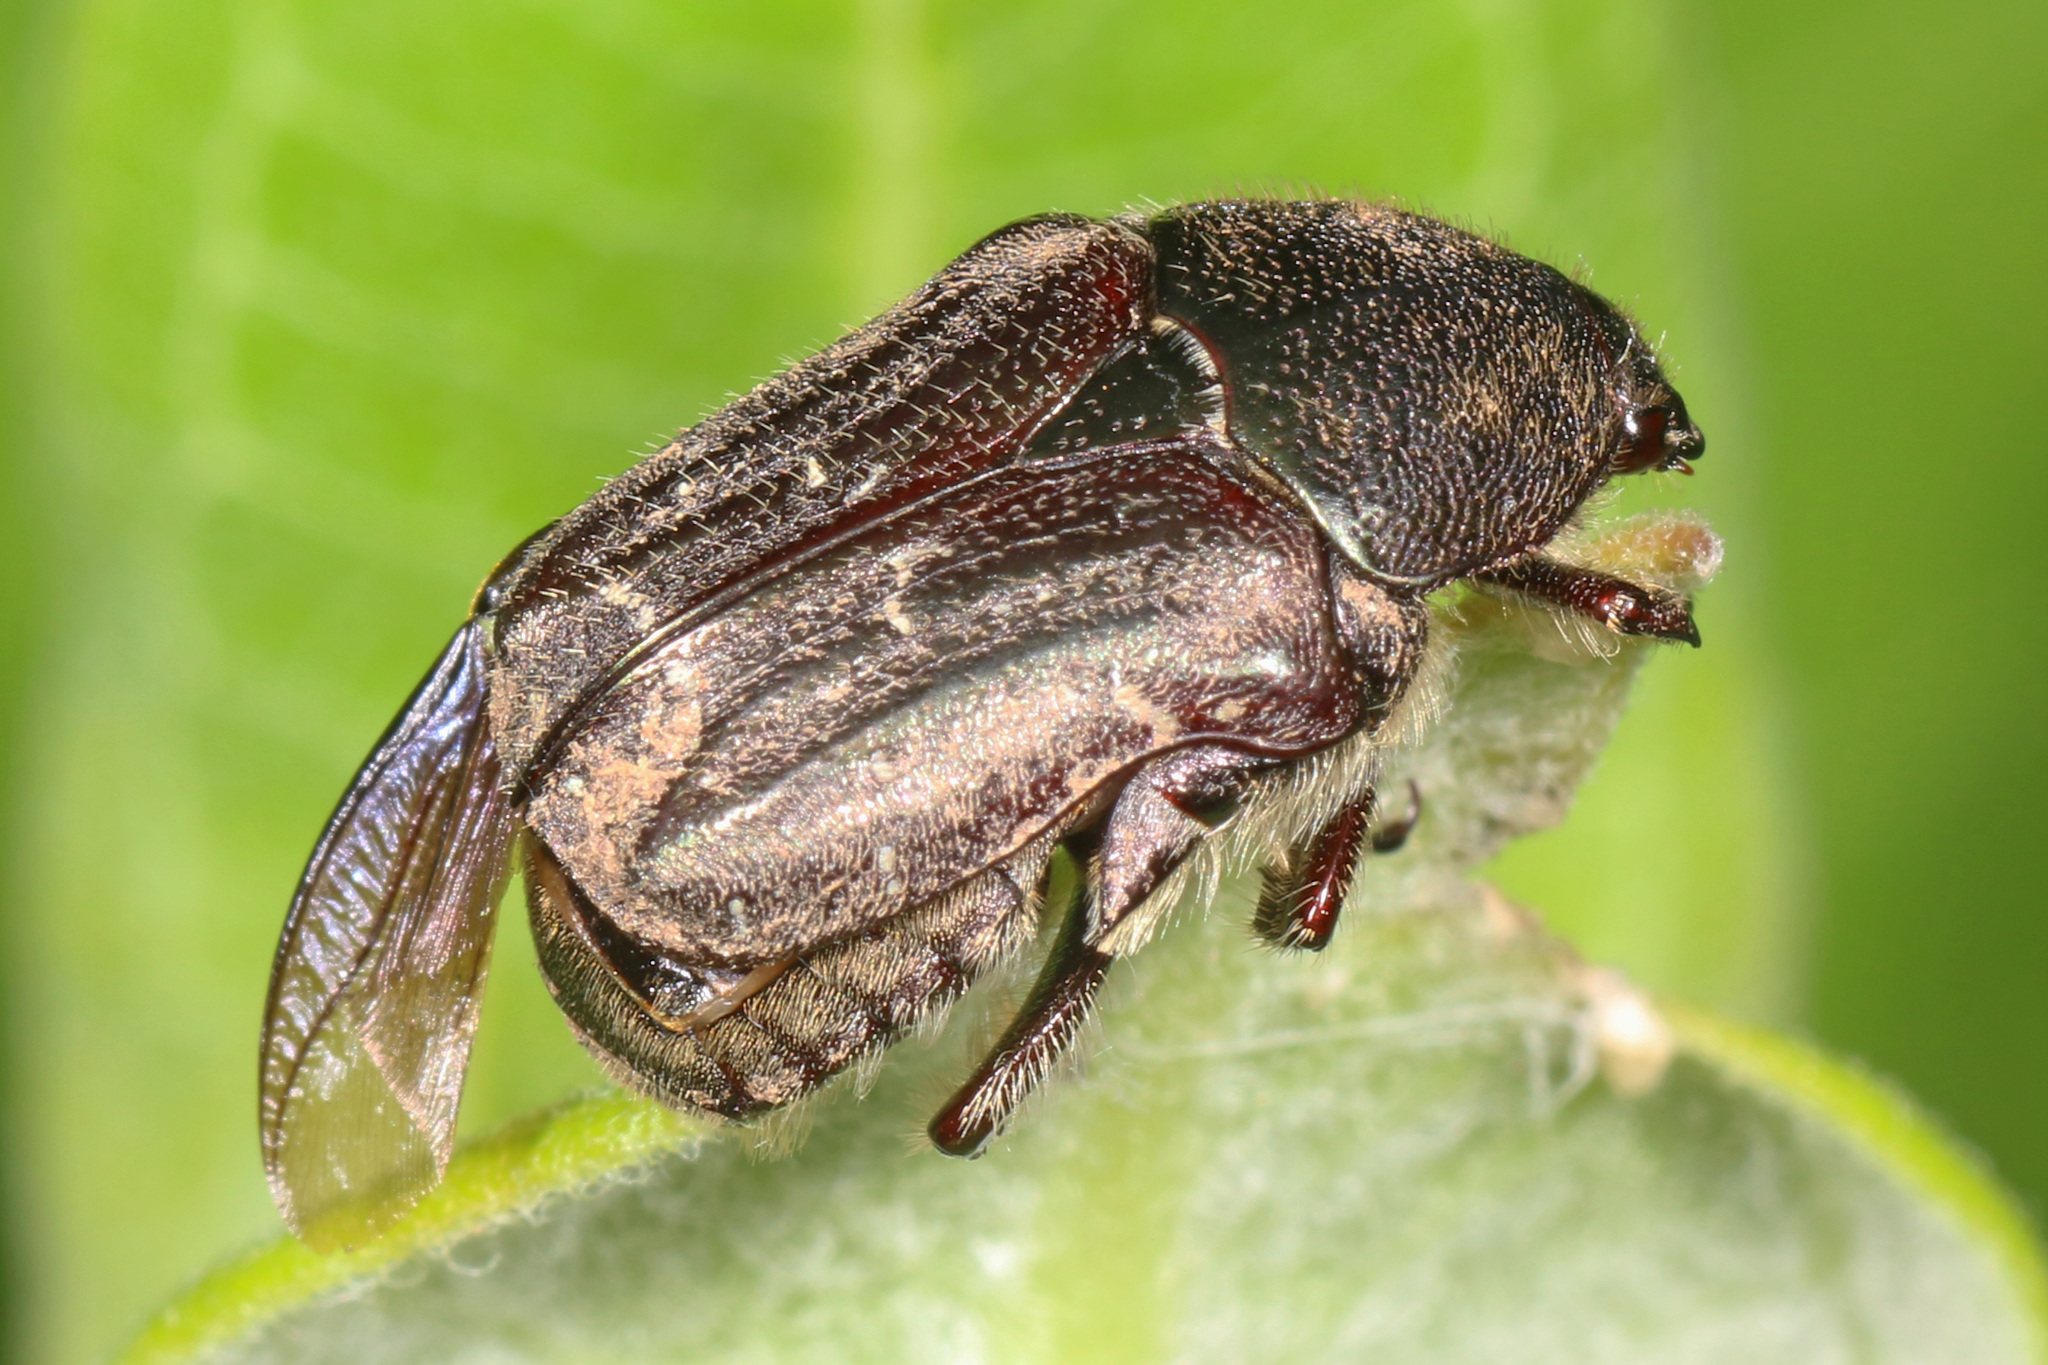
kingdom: Animalia
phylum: Arthropoda
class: Insecta
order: Coleoptera
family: Scarabaeidae
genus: Euphoria
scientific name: Euphoria sepulcralis
